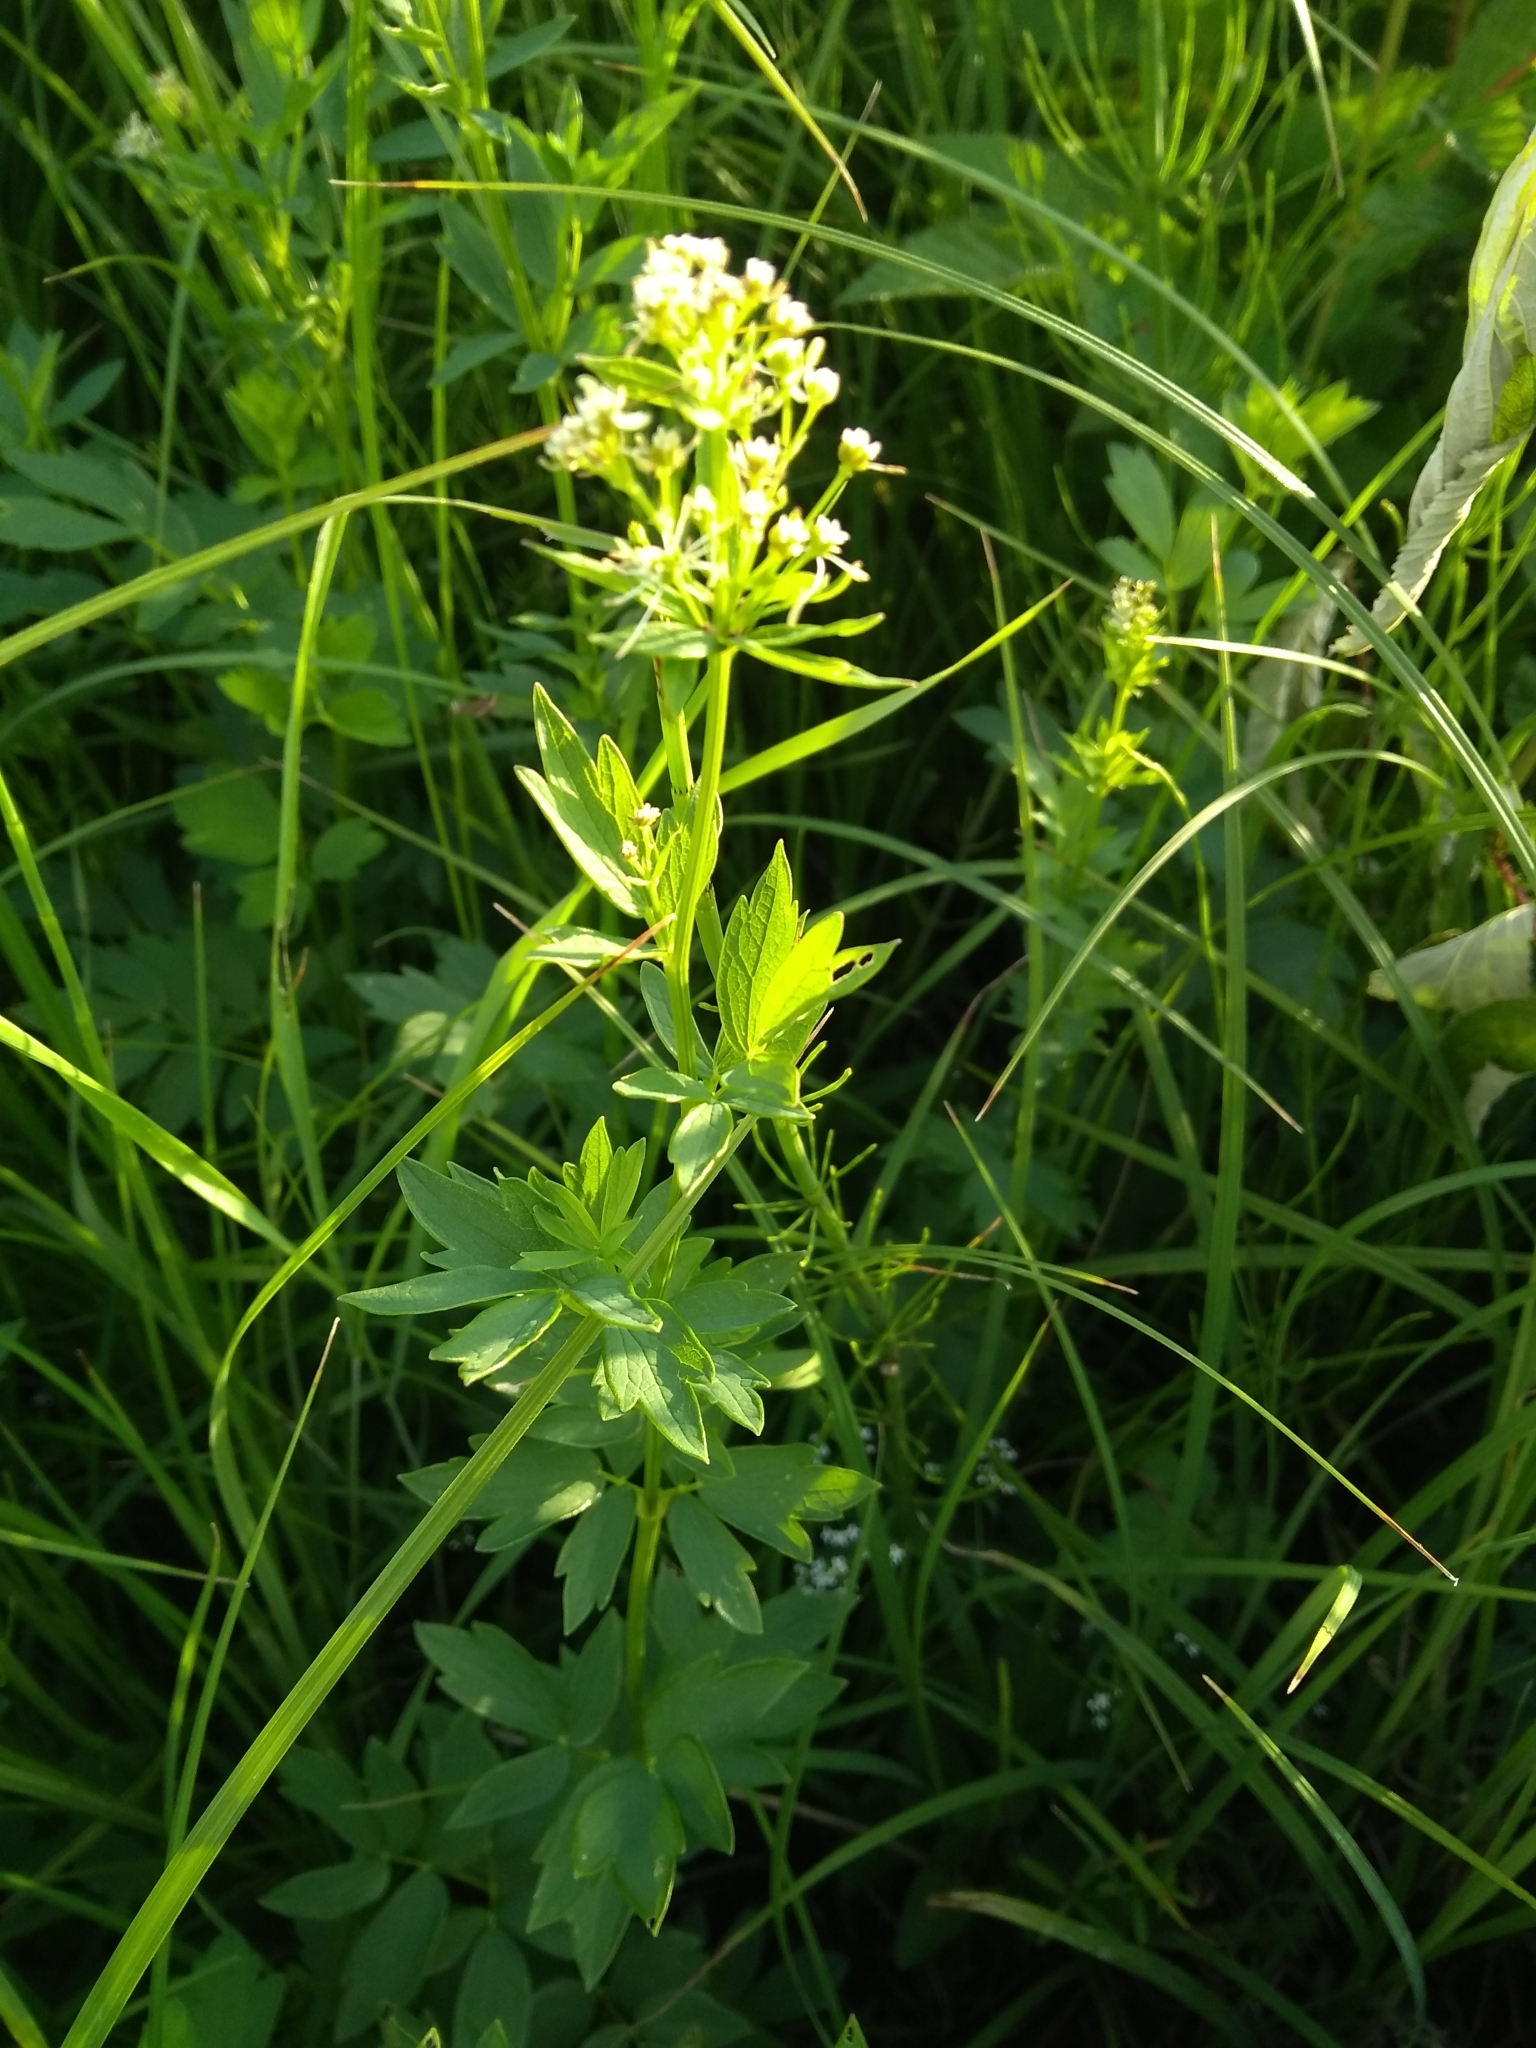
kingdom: Plantae
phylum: Tracheophyta
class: Magnoliopsida
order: Ranunculales
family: Ranunculaceae
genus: Thalictrum
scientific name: Thalictrum flavum
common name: Common meadow-rue
